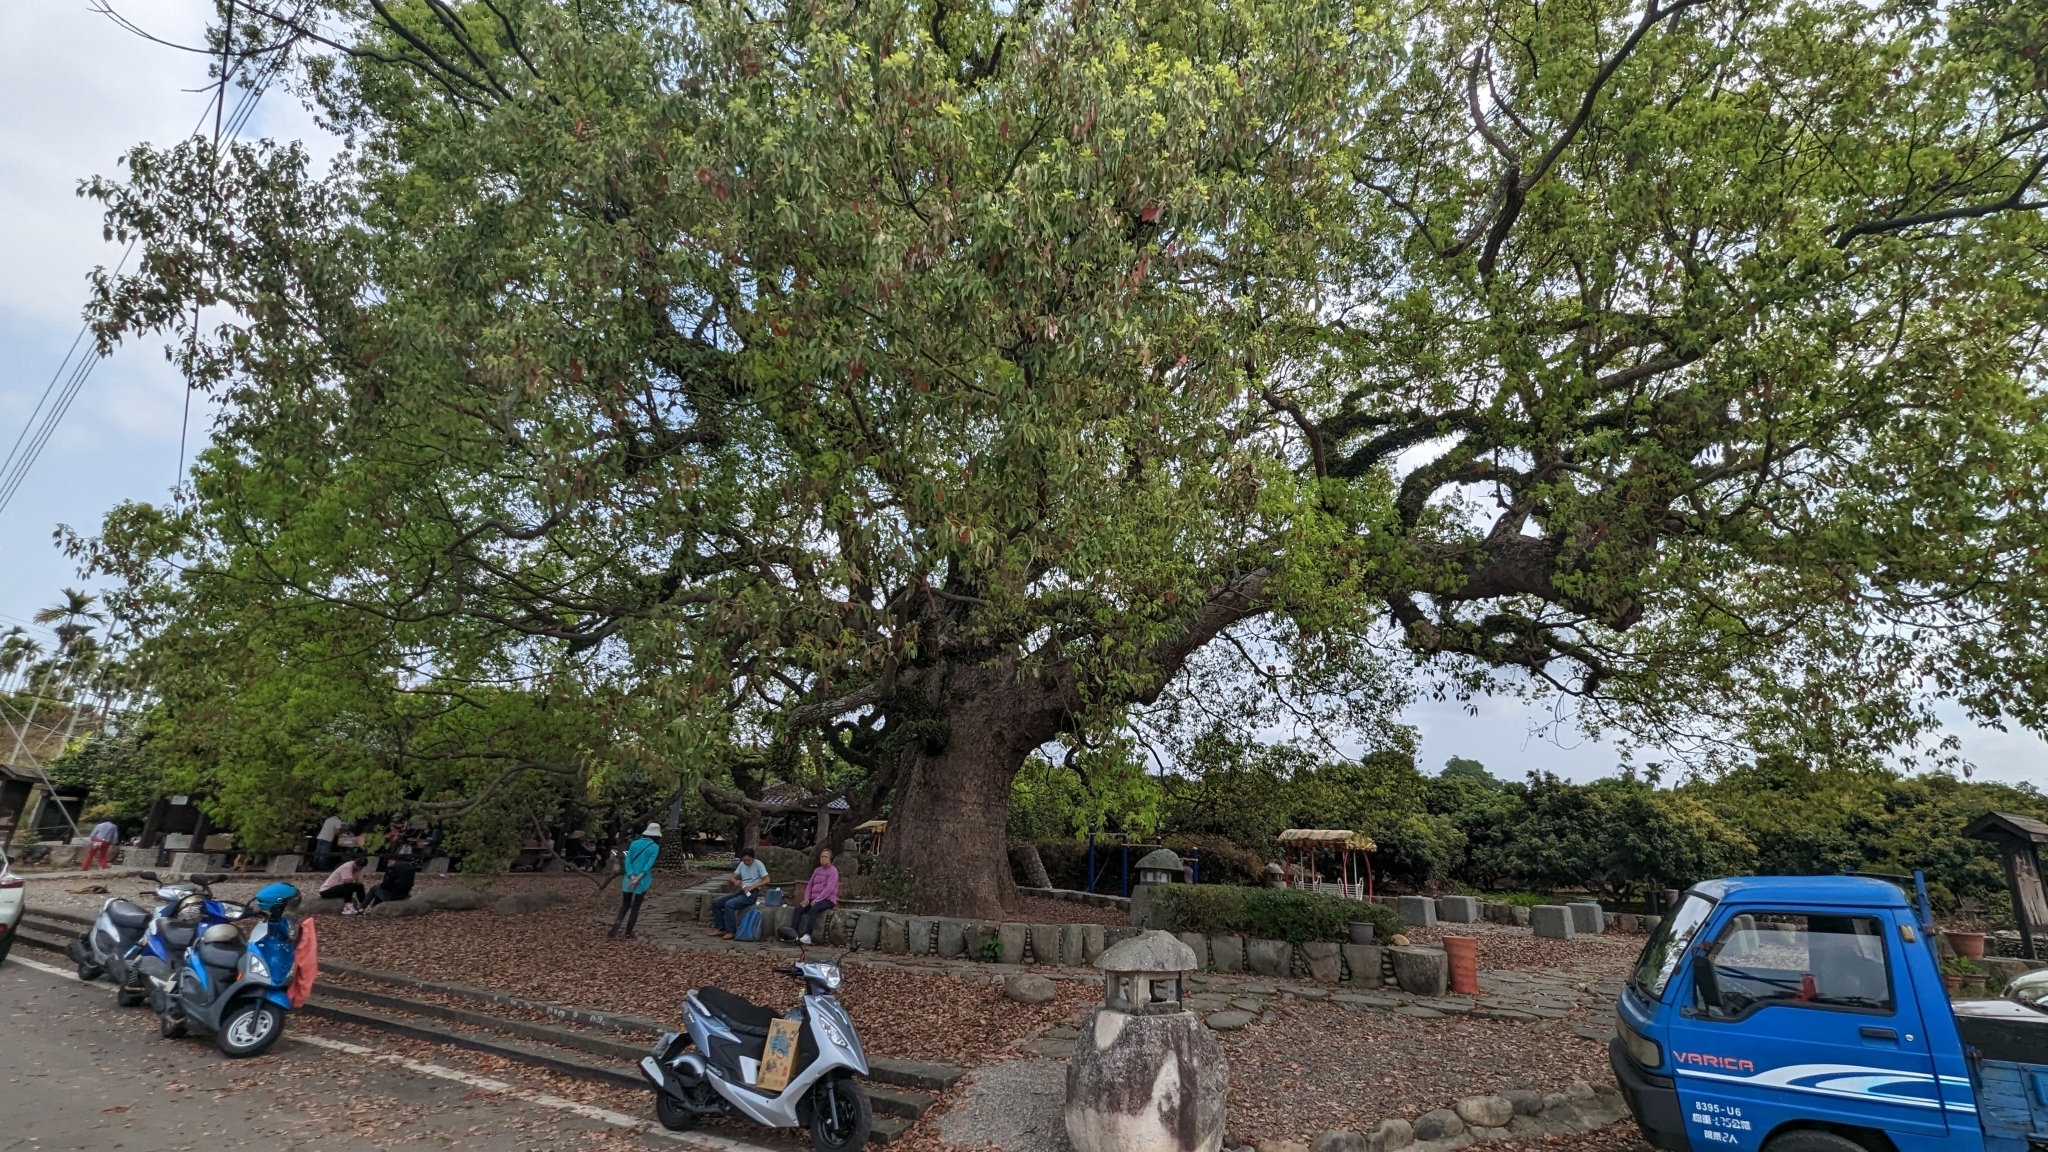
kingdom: Plantae
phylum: Tracheophyta
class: Magnoliopsida
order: Laurales
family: Lauraceae
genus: Cinnamomum
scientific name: Cinnamomum camphora
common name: Camphortree
